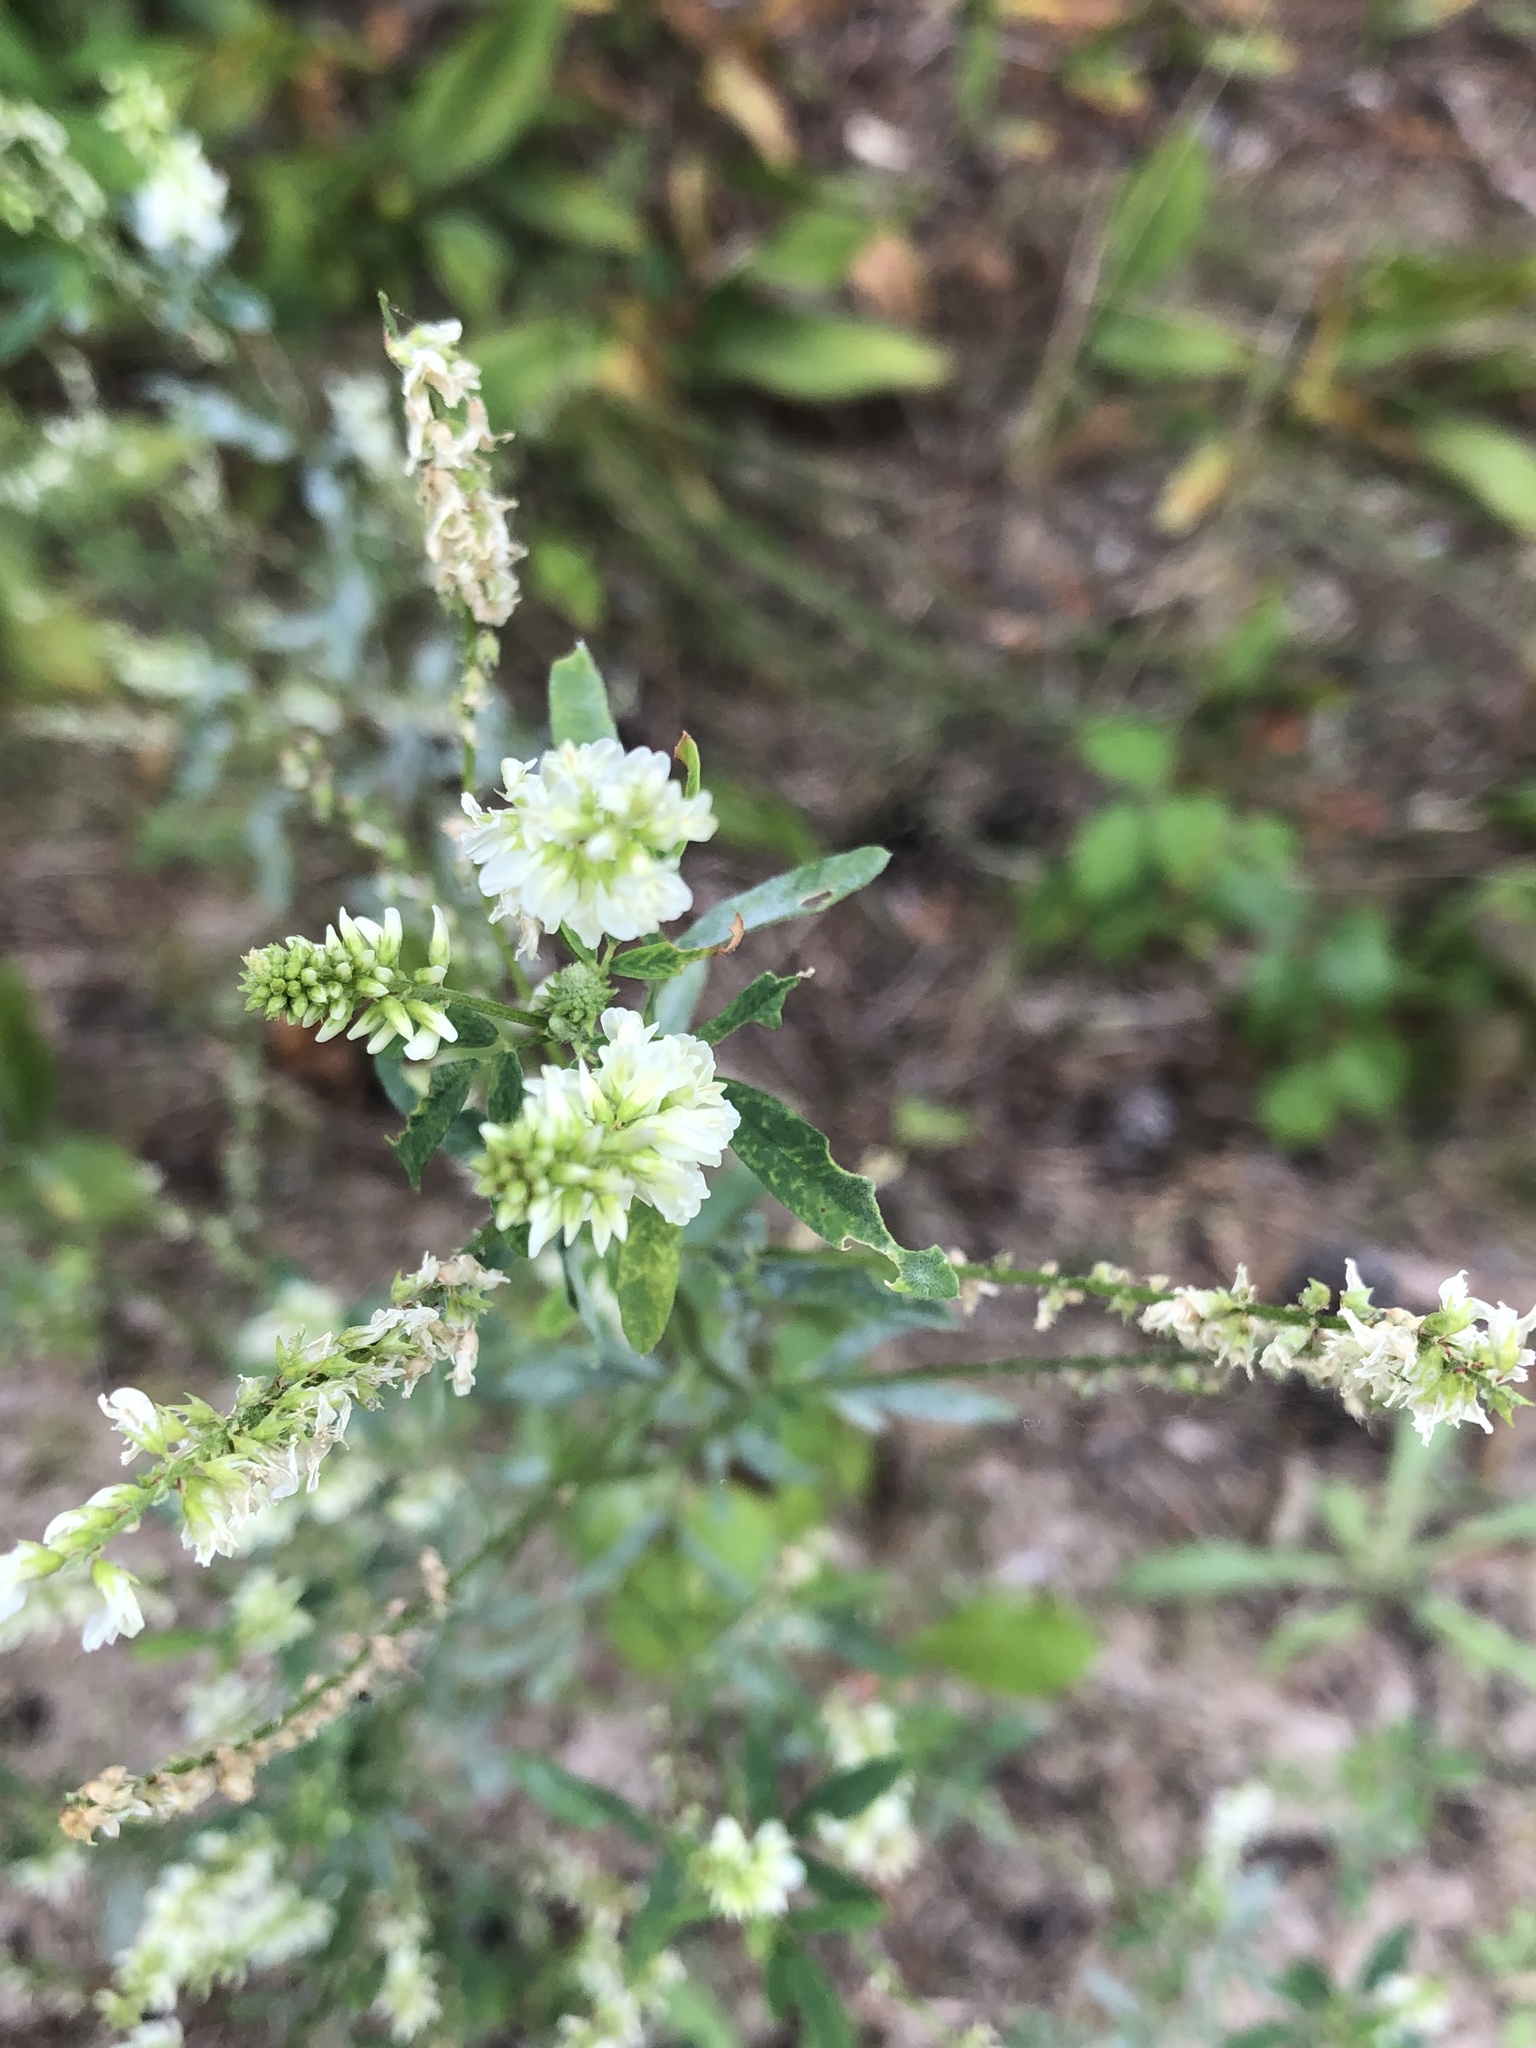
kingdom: Plantae
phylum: Tracheophyta
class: Magnoliopsida
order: Fabales
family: Fabaceae
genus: Melilotus
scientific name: Melilotus albus
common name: White melilot
